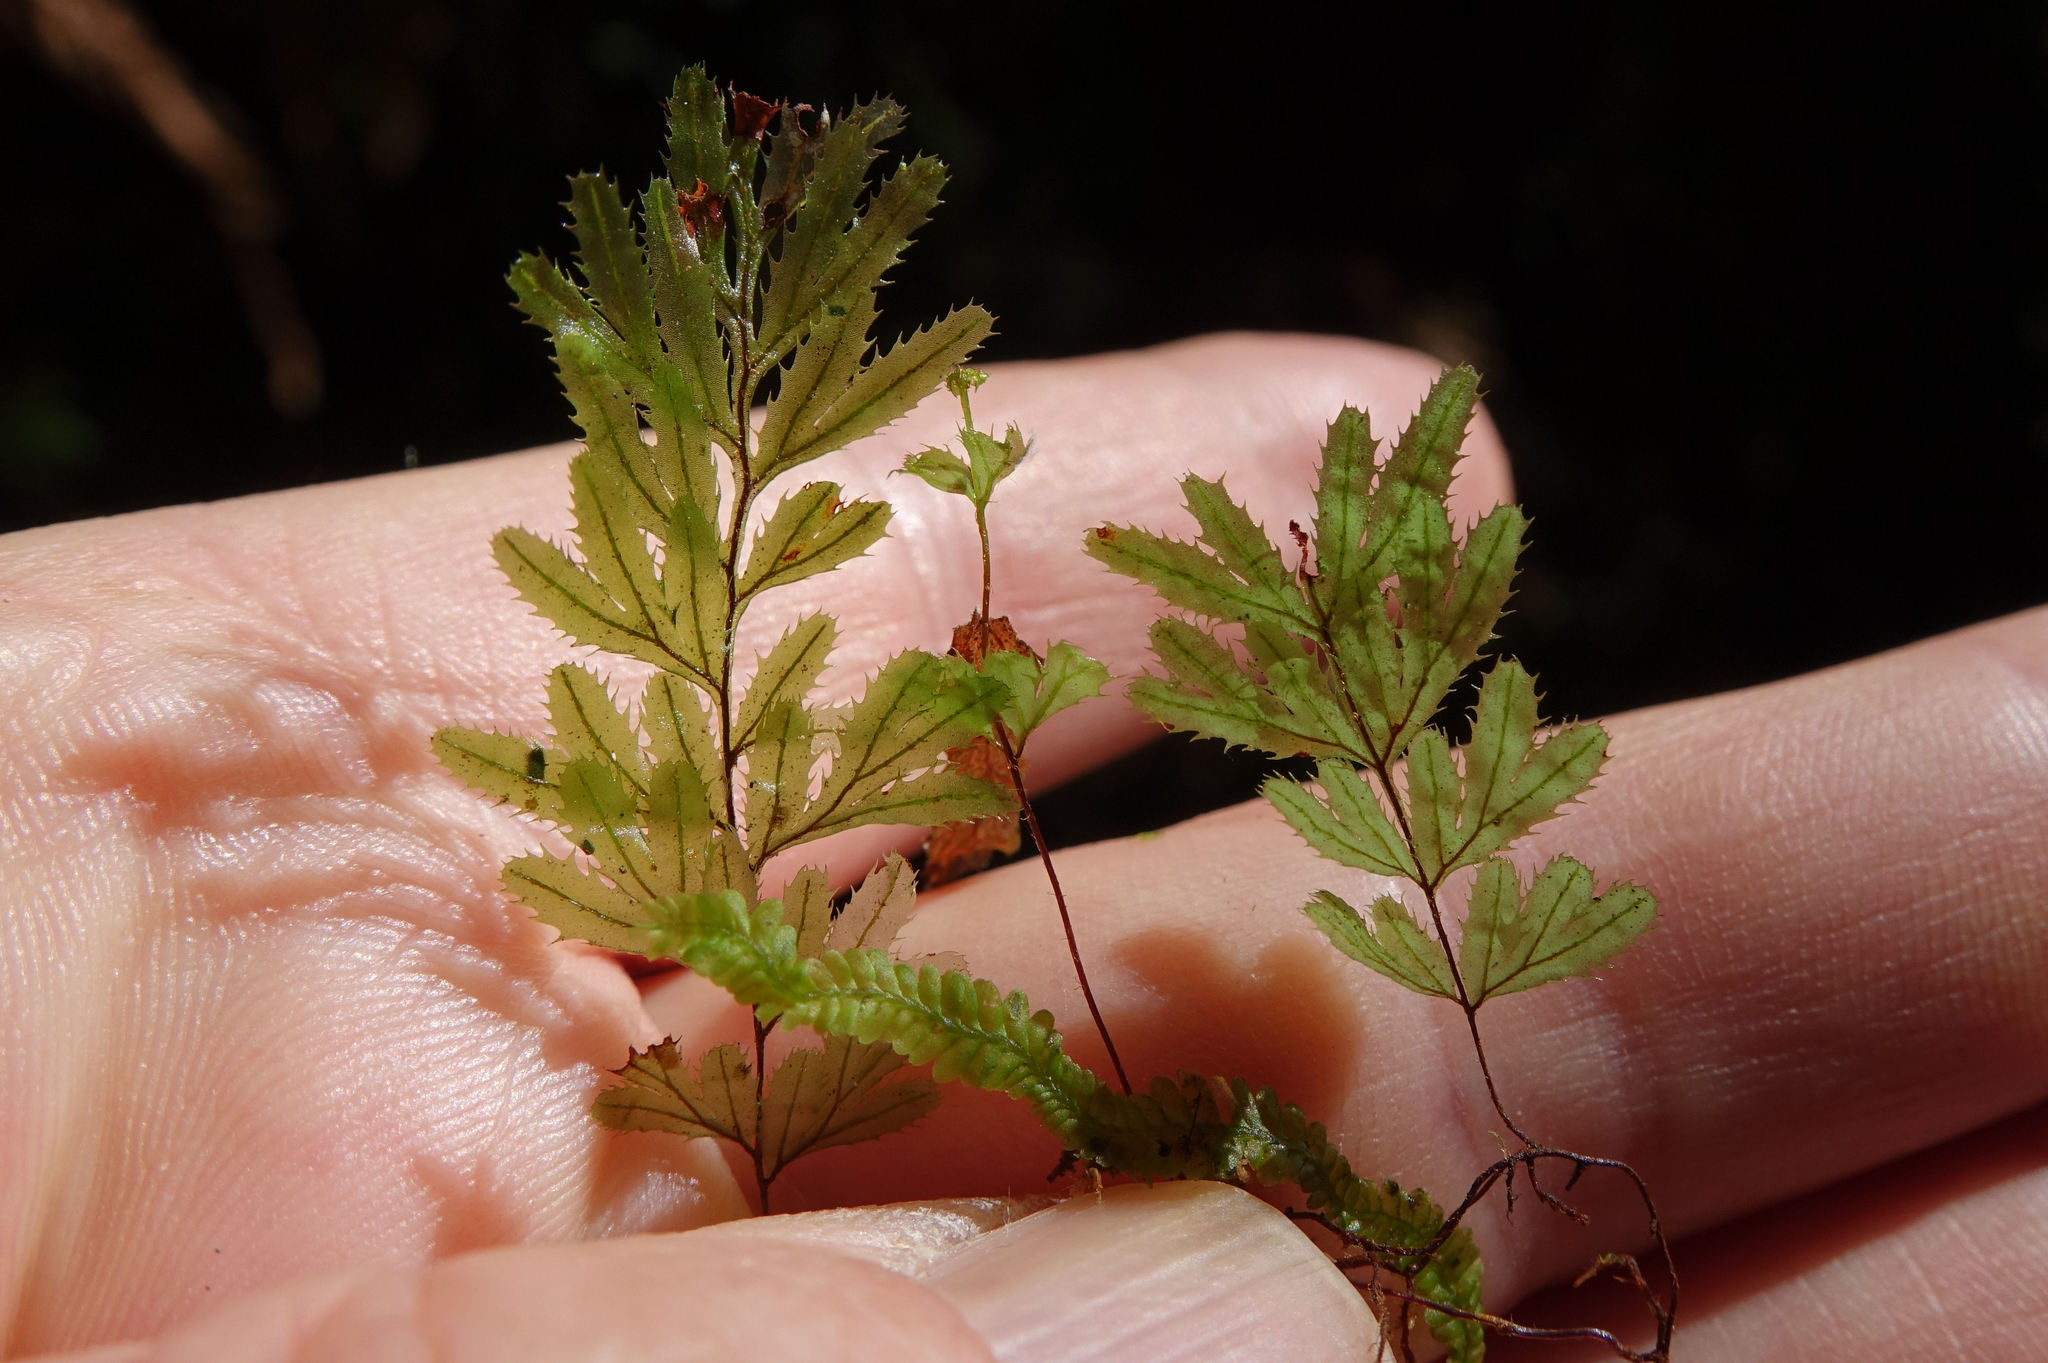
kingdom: Plantae
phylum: Tracheophyta
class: Polypodiopsida
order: Hymenophyllales
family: Hymenophyllaceae
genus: Hymenophyllum
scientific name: Hymenophyllum revolutum
